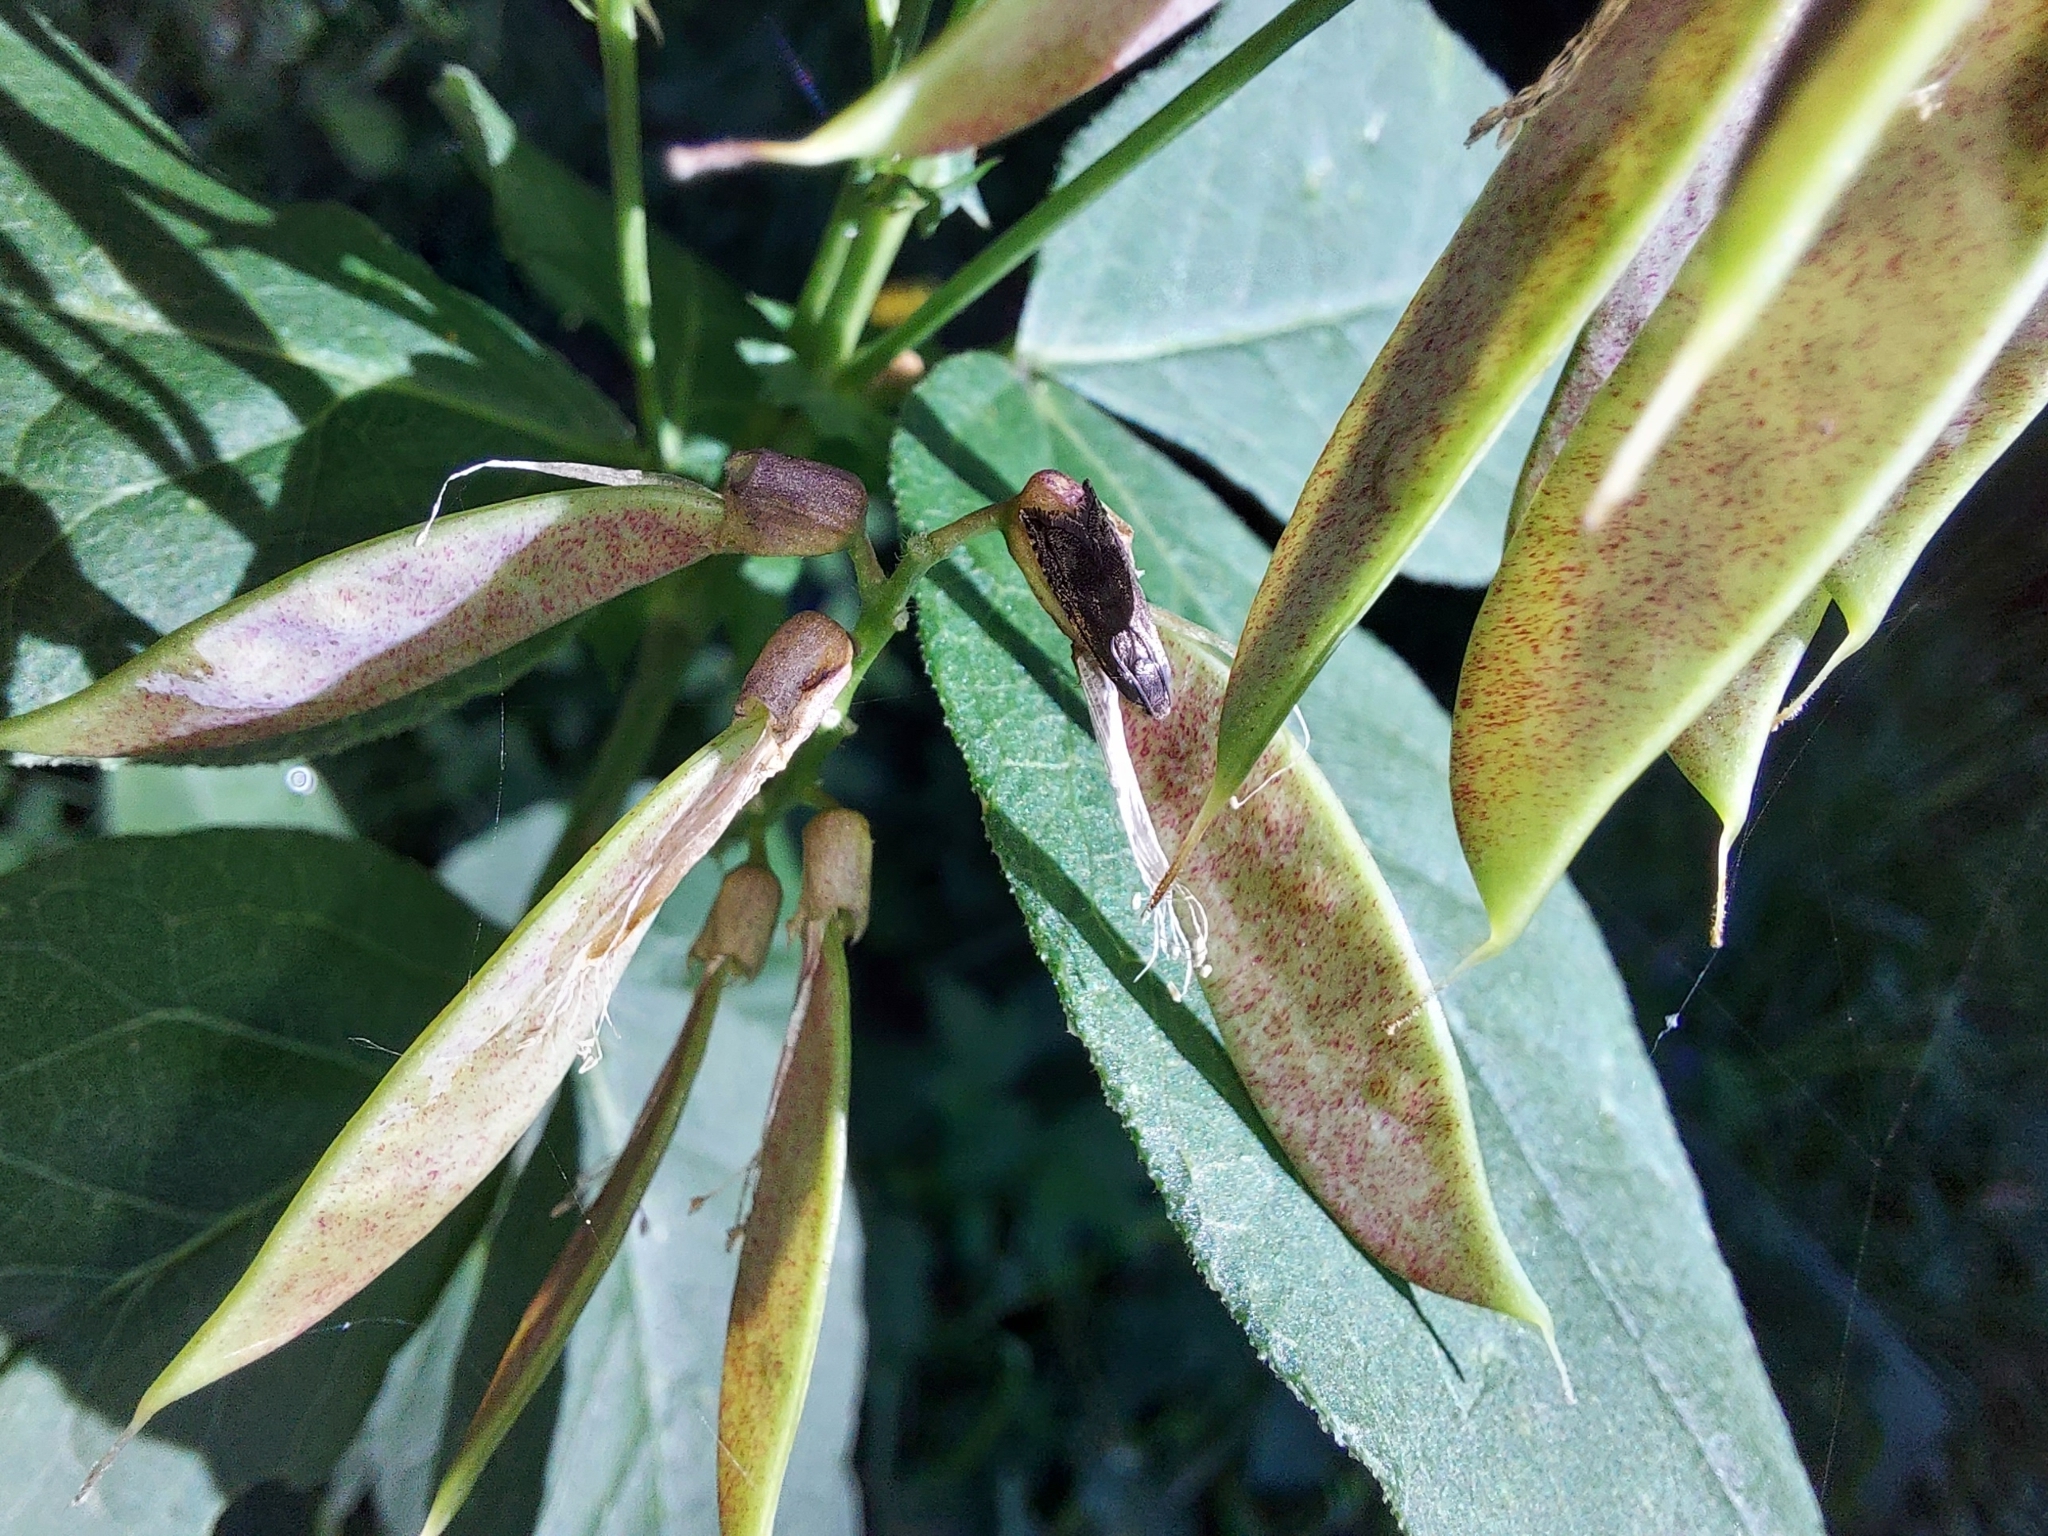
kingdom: Plantae
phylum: Tracheophyta
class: Magnoliopsida
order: Fabales
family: Fabaceae
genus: Vicia
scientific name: Vicia unijuga
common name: Two-leaf vetch
